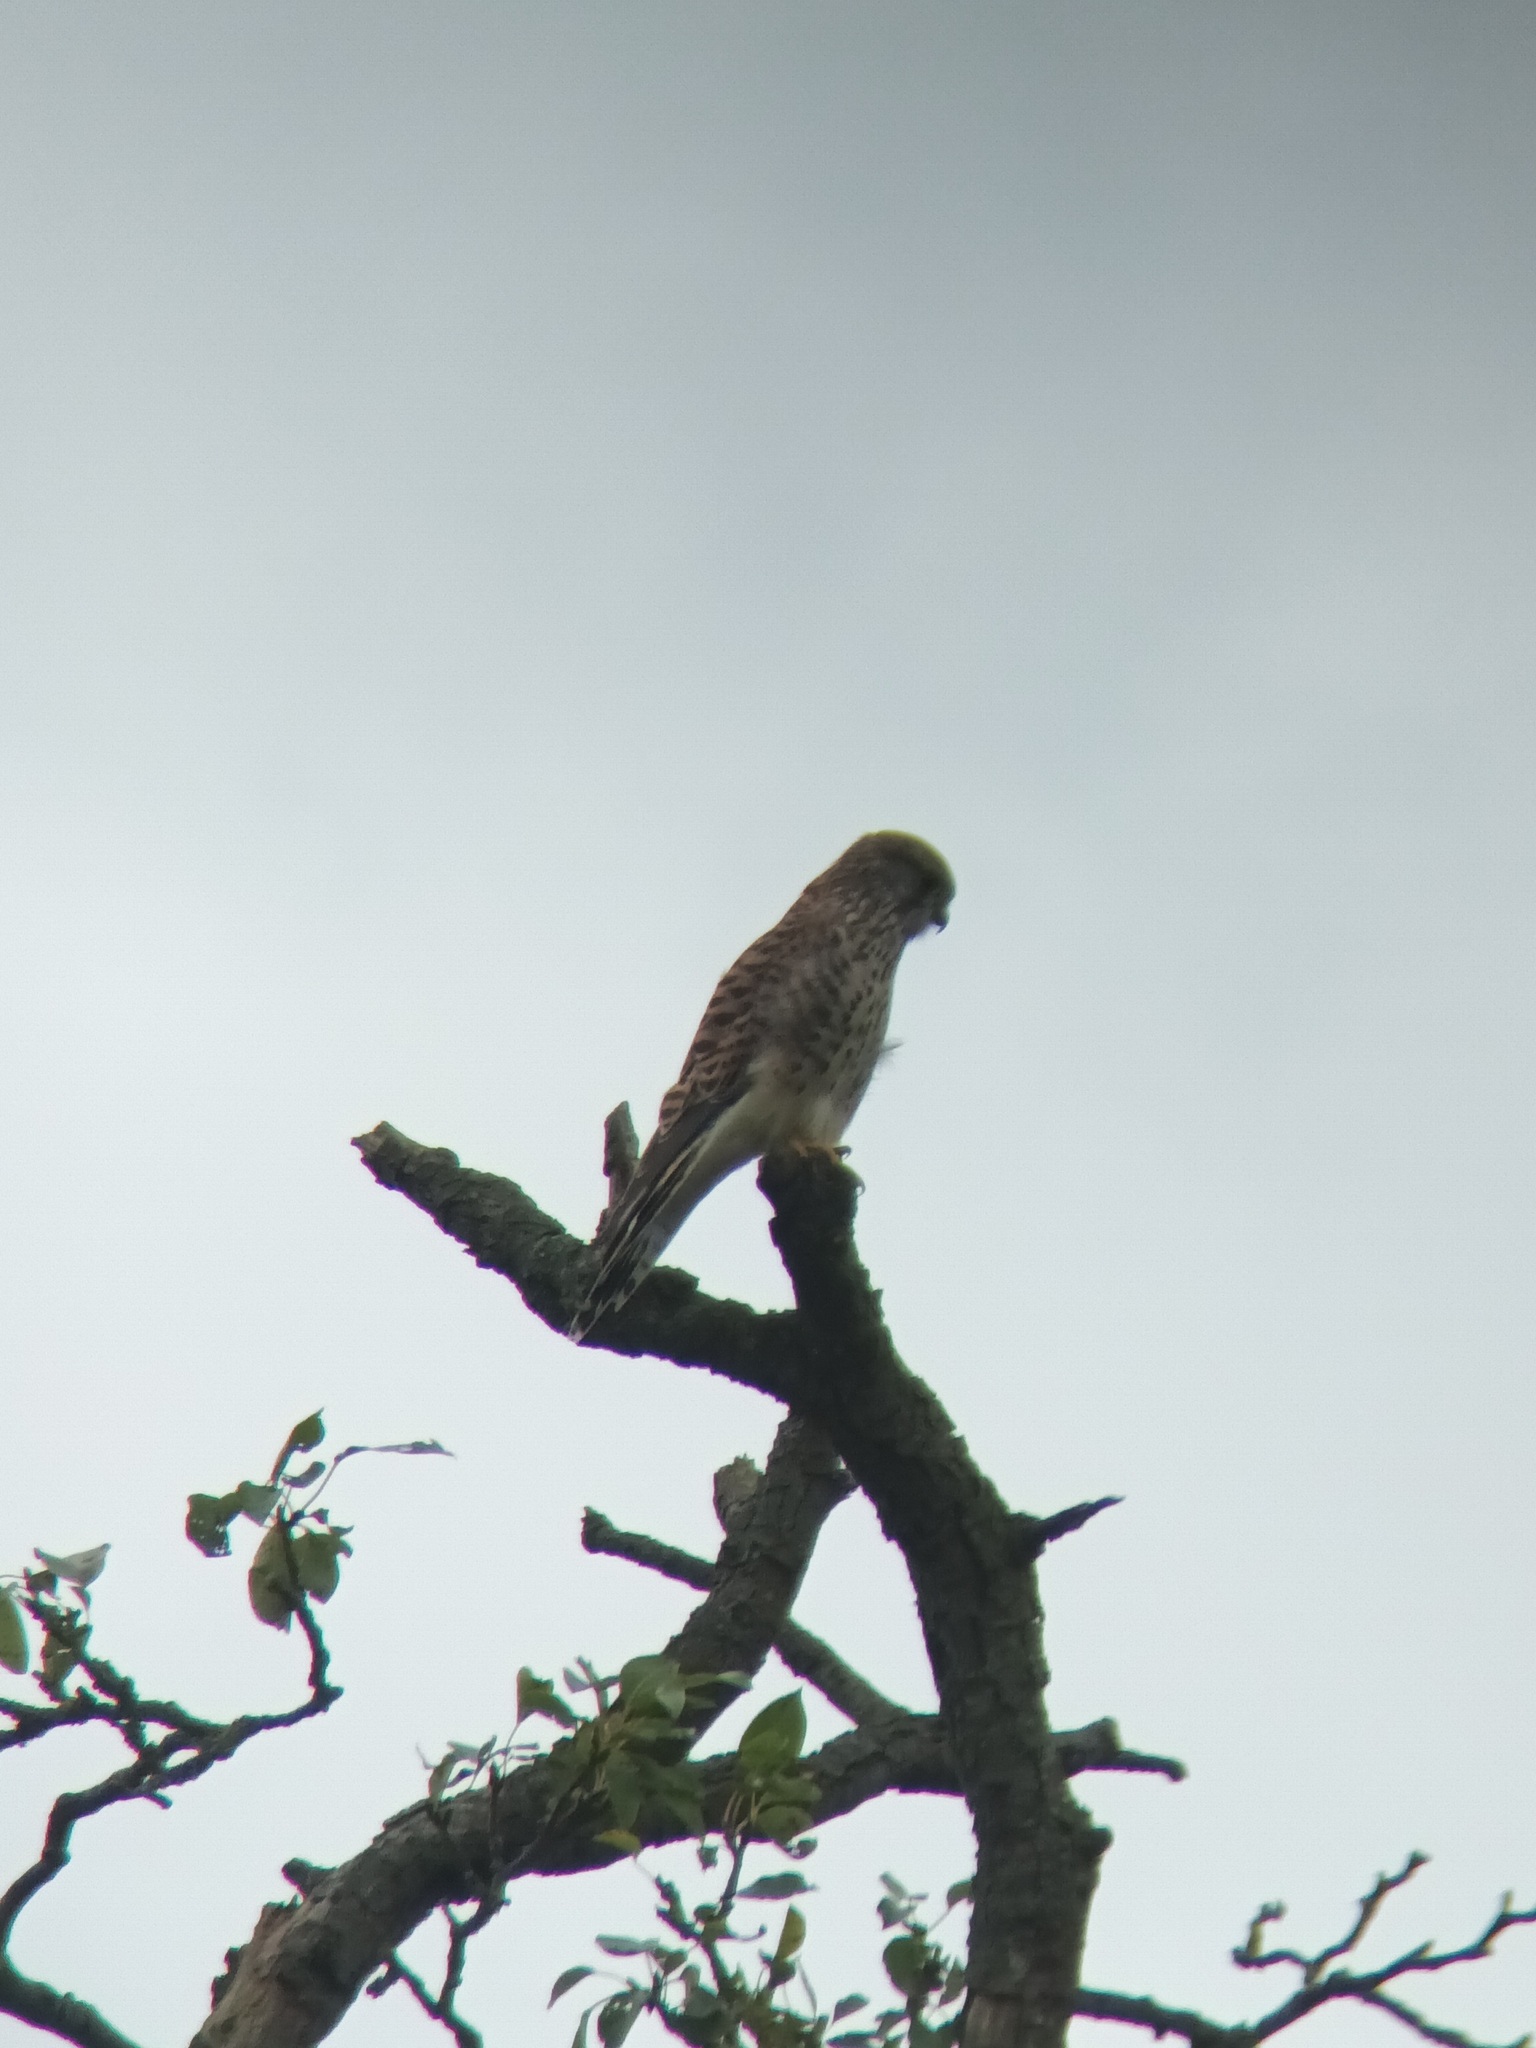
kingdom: Animalia
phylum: Chordata
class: Aves
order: Falconiformes
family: Falconidae
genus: Falco
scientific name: Falco tinnunculus
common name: Common kestrel
